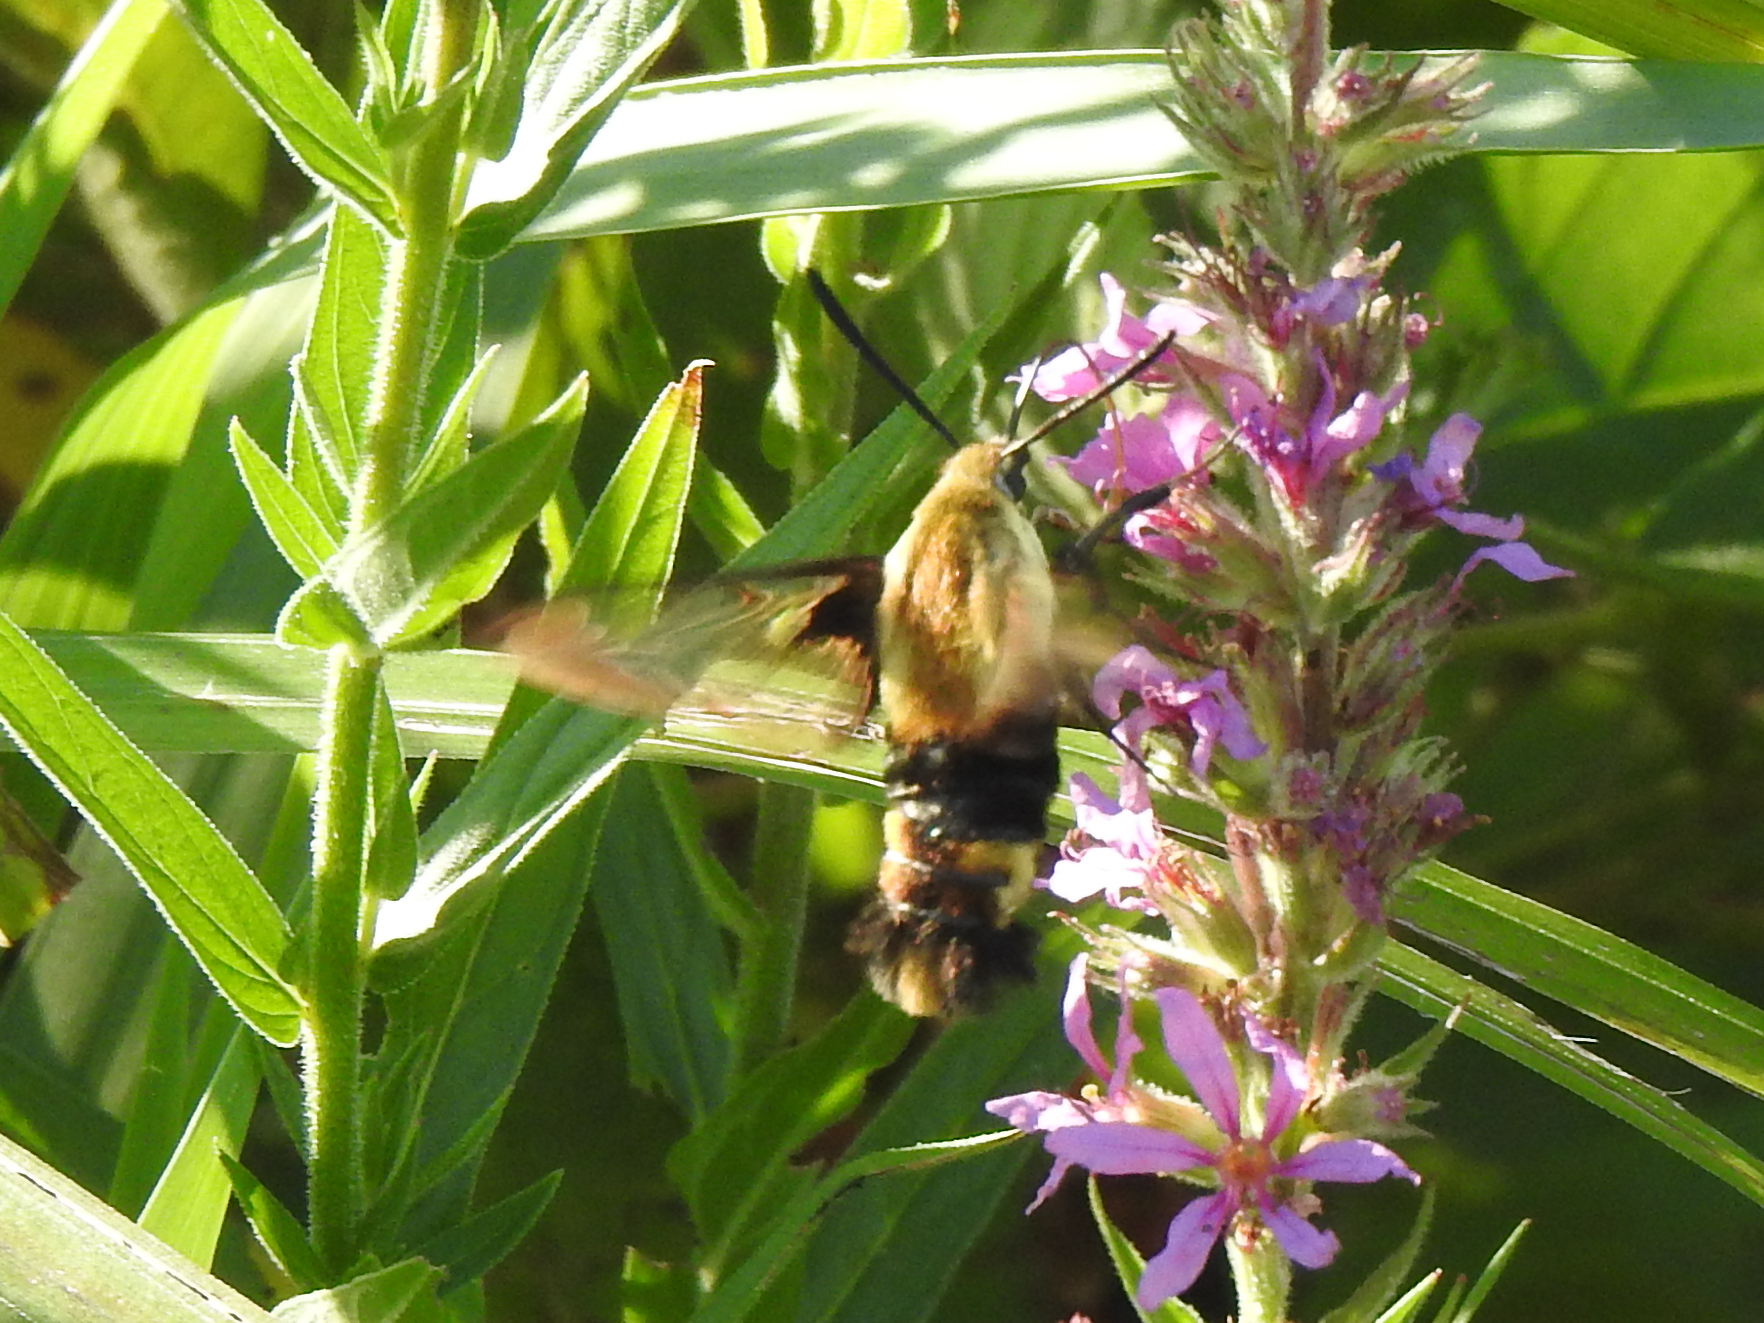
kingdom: Animalia
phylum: Arthropoda
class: Insecta
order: Lepidoptera
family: Sphingidae
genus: Hemaris
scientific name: Hemaris diffinis
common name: Bumblebee moth
